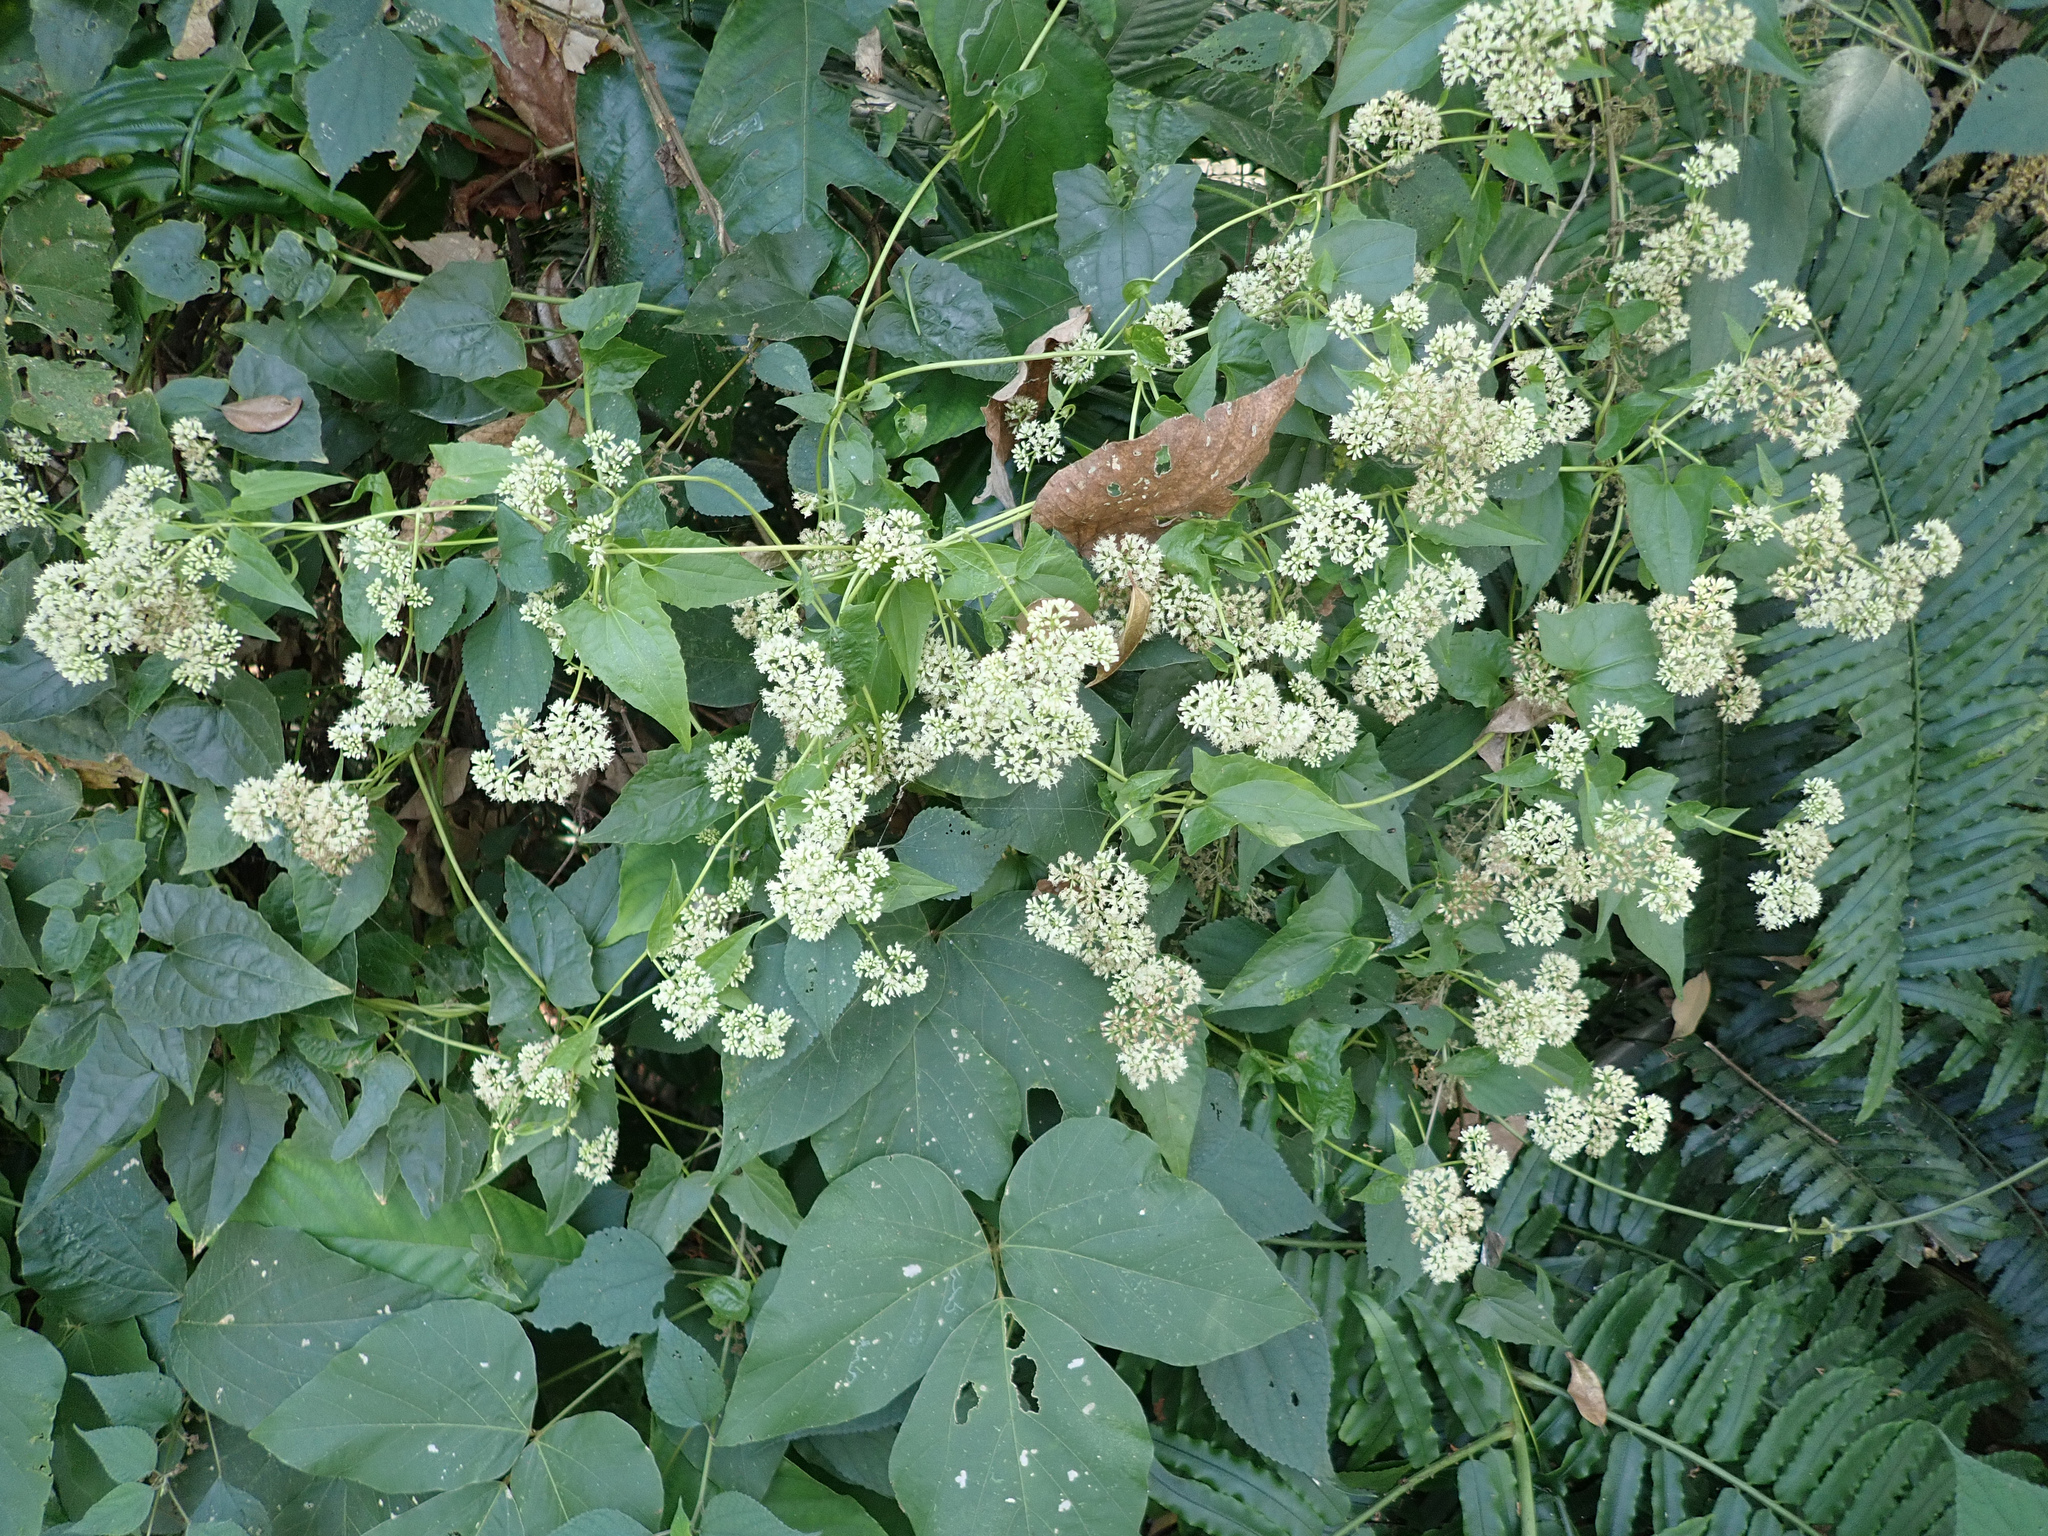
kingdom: Plantae
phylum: Tracheophyta
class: Magnoliopsida
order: Asterales
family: Asteraceae
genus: Mikania
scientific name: Mikania micrantha
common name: Mile-a-minute
